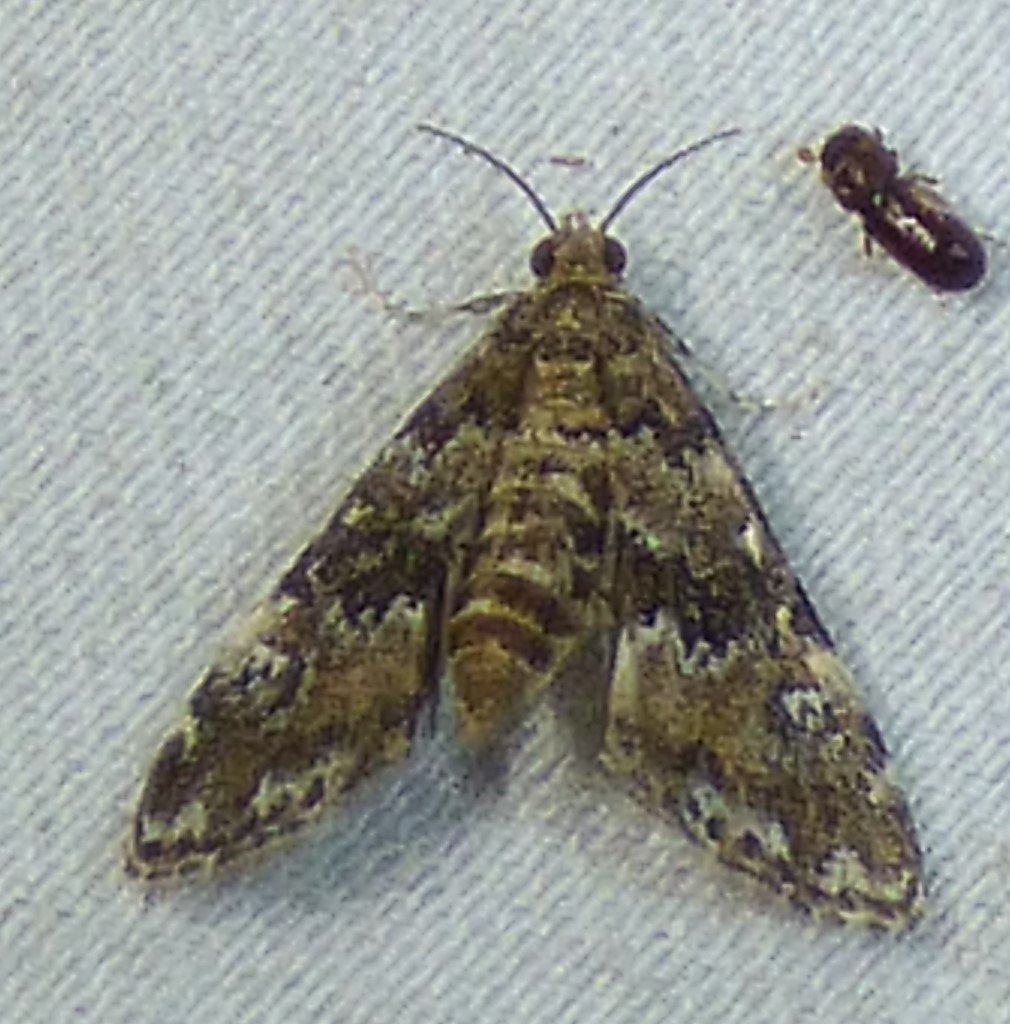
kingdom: Animalia
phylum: Arthropoda
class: Insecta
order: Lepidoptera
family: Crambidae
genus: Elophila
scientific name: Elophila obliteralis
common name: Waterlily leafcutter moth
